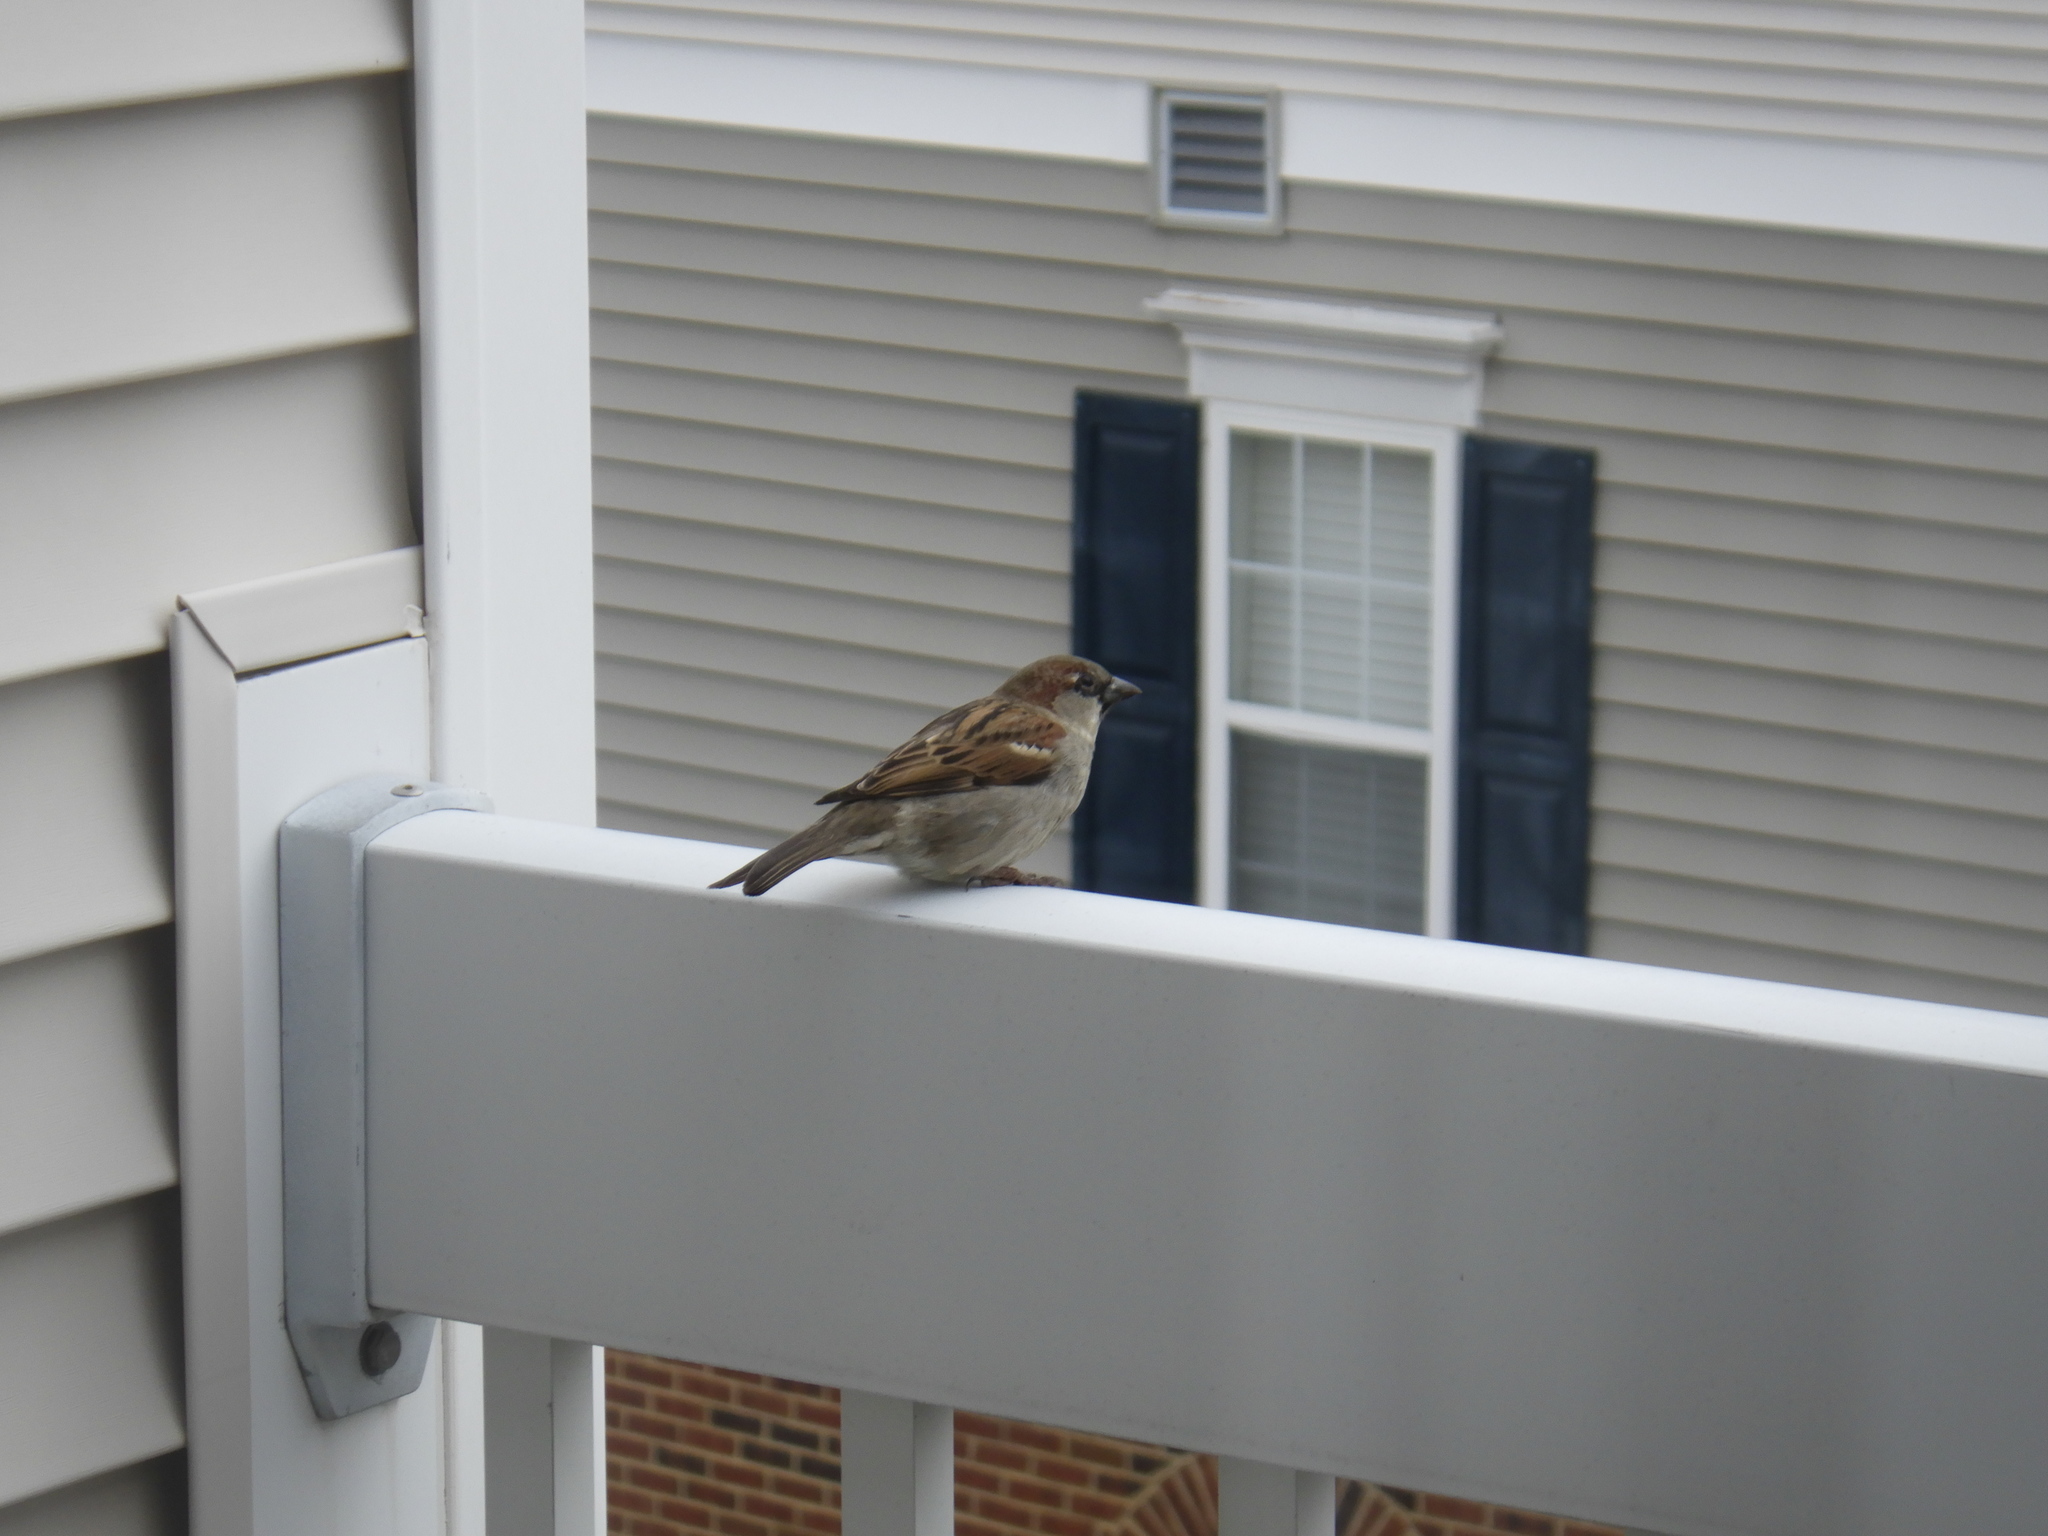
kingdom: Animalia
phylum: Chordata
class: Aves
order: Passeriformes
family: Passeridae
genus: Passer
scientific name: Passer domesticus
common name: House sparrow
